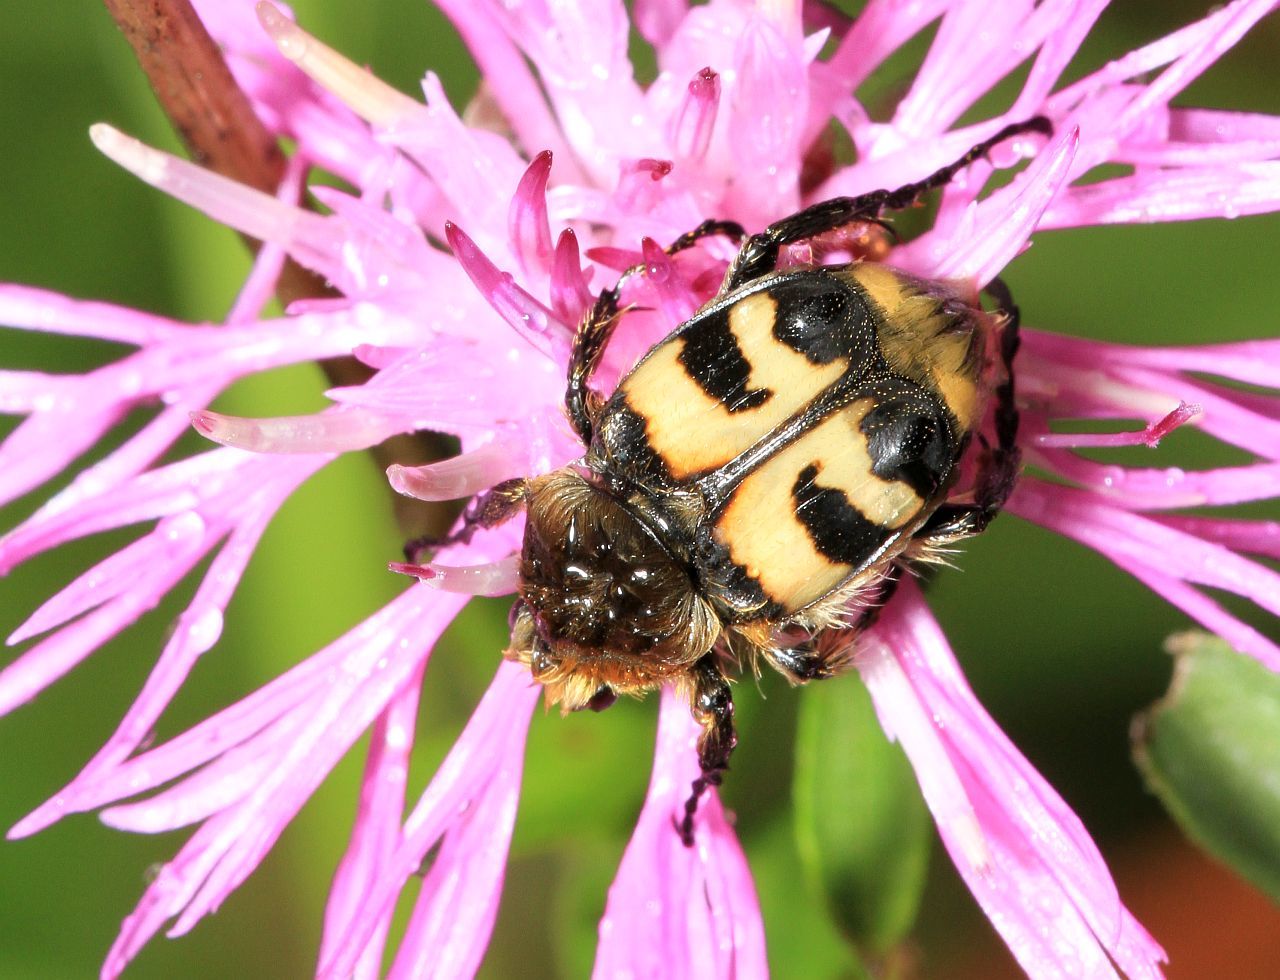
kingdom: Animalia
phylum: Arthropoda
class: Insecta
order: Coleoptera
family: Scarabaeidae
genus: Trichius
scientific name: Trichius fasciatus
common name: Bee beetle
